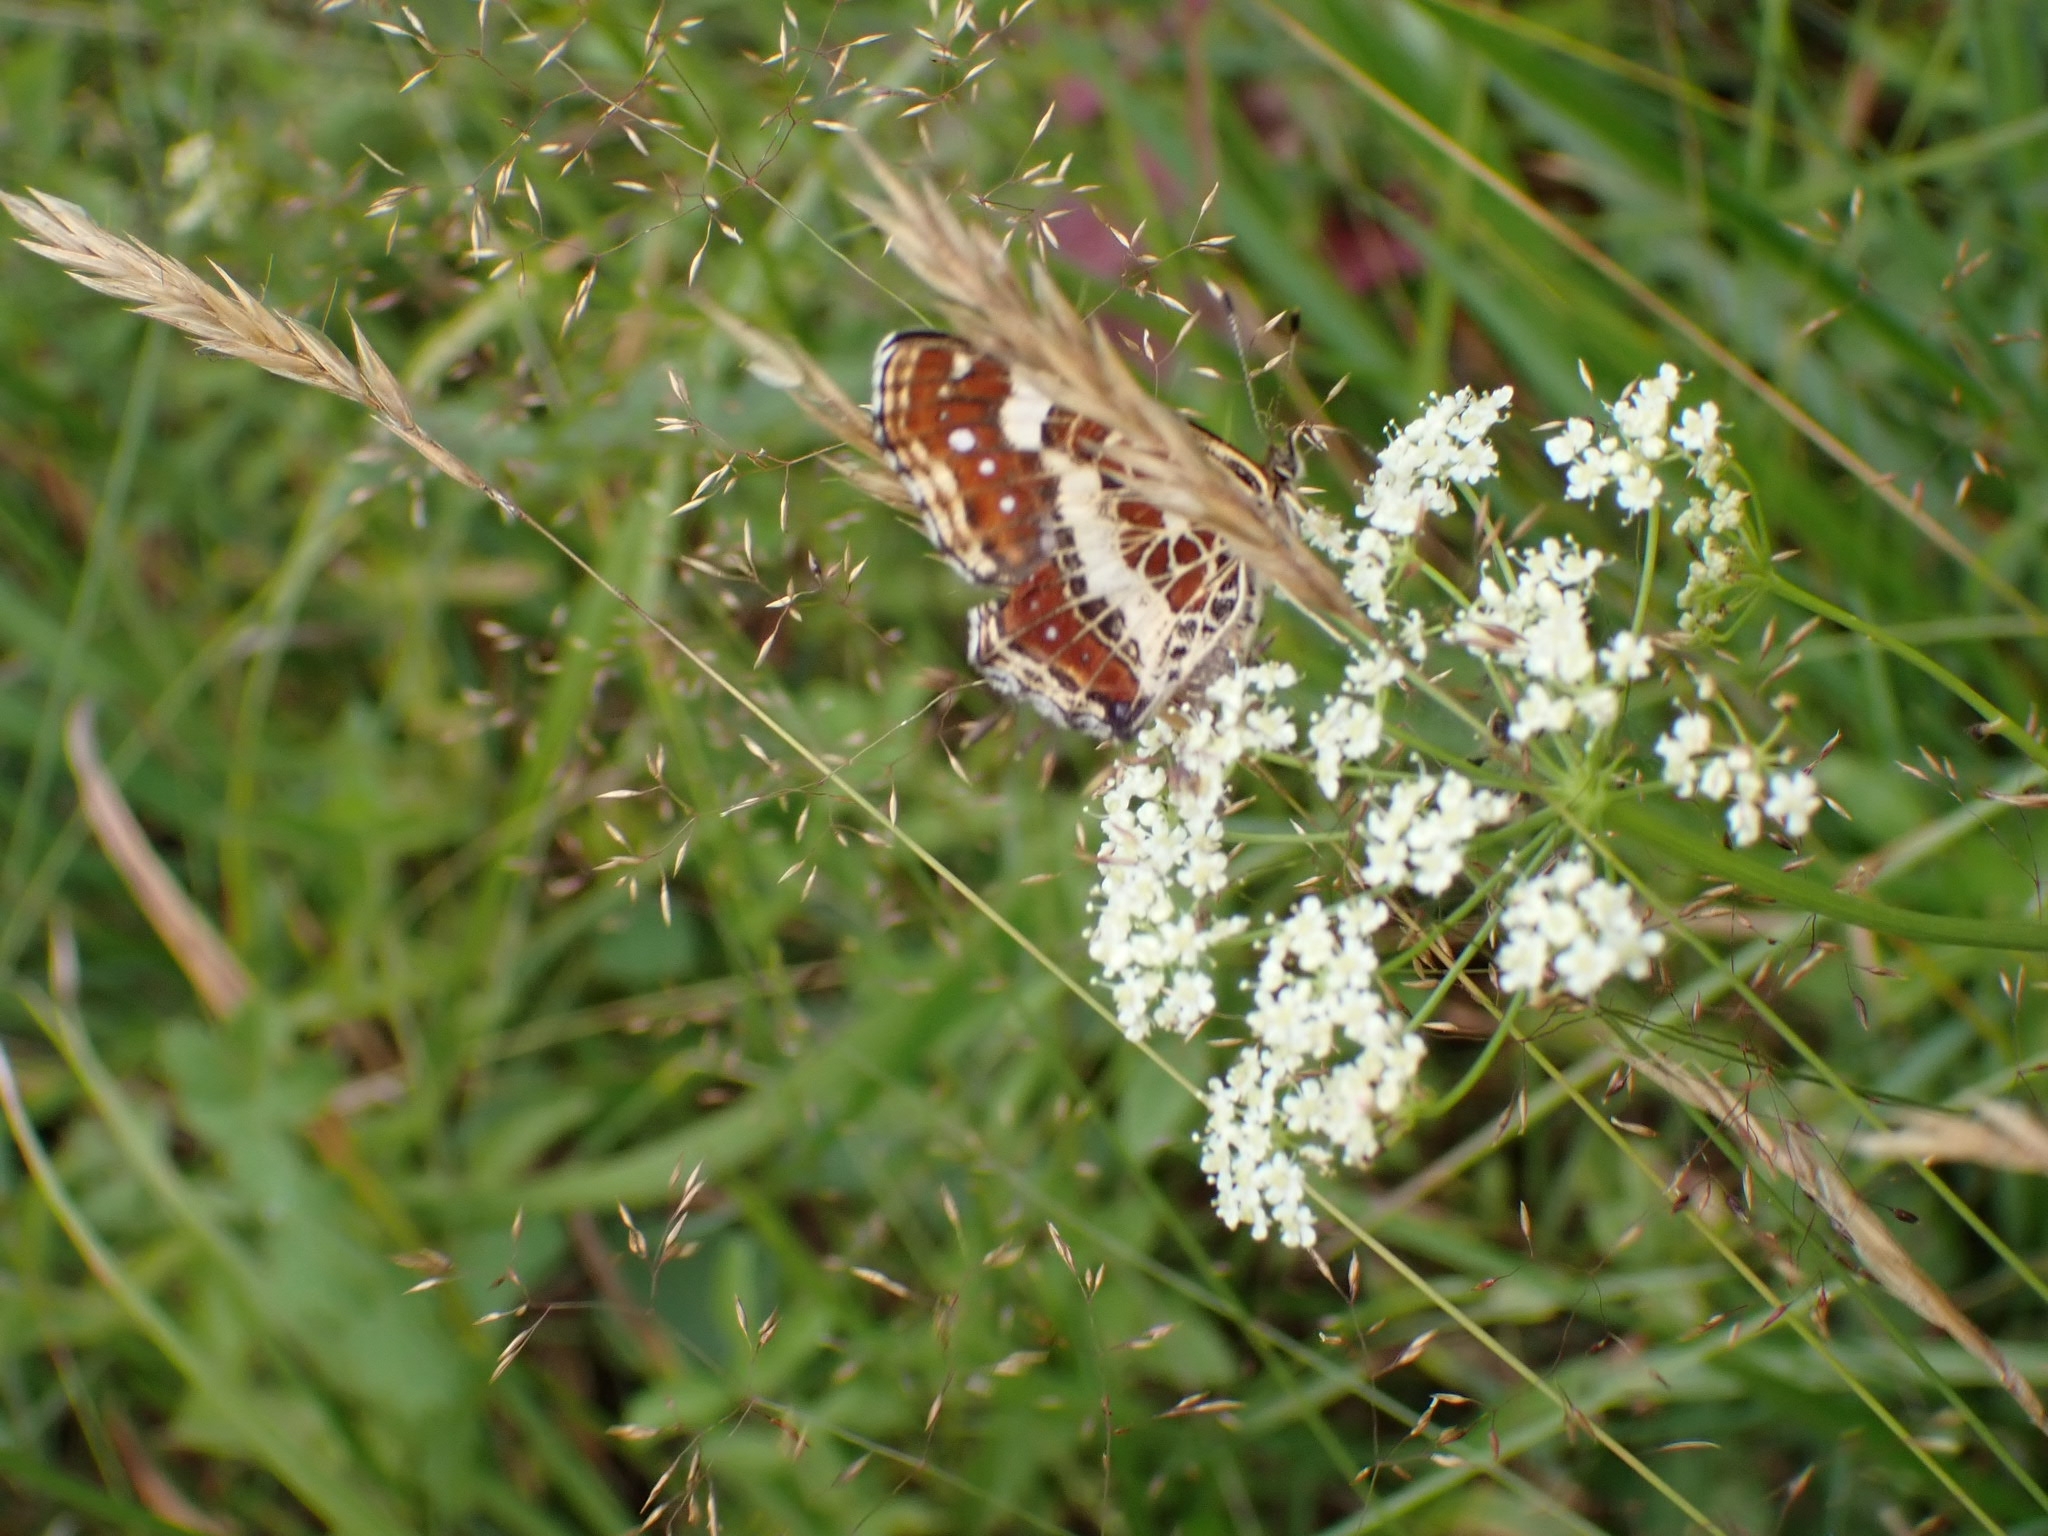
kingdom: Animalia
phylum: Arthropoda
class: Insecta
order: Lepidoptera
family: Nymphalidae
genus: Araschnia
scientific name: Araschnia levana
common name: Map butterfly
